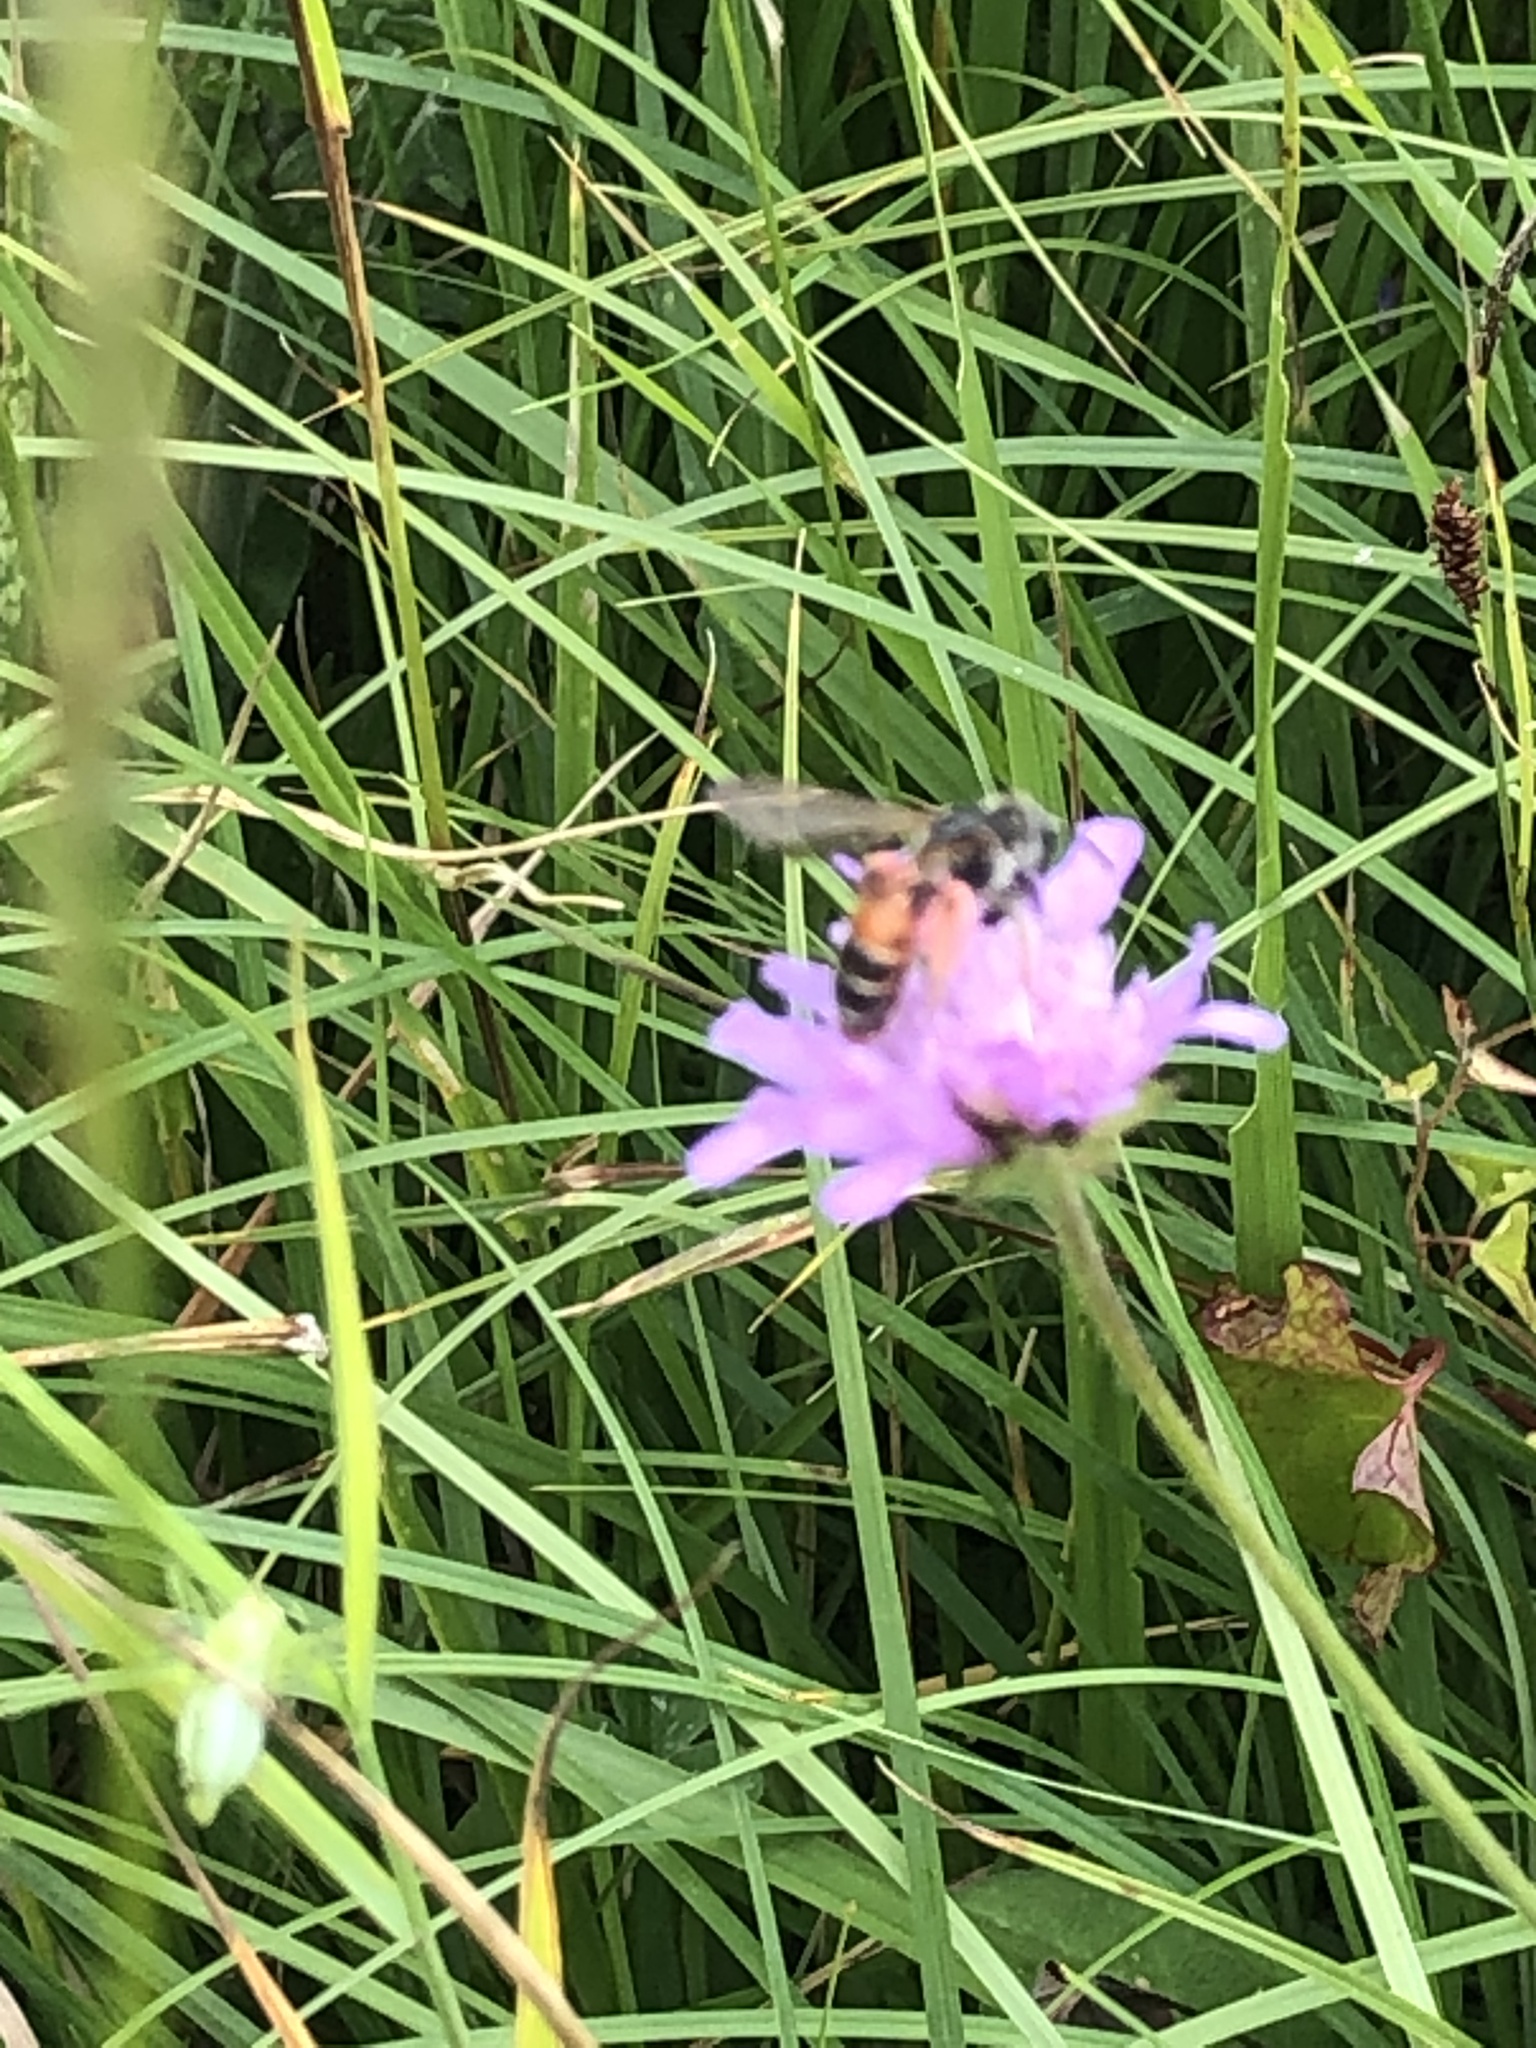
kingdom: Animalia
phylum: Arthropoda
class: Insecta
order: Hymenoptera
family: Andrenidae
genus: Andrena
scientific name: Andrena hattorfiana
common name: Large scabious mining bee
